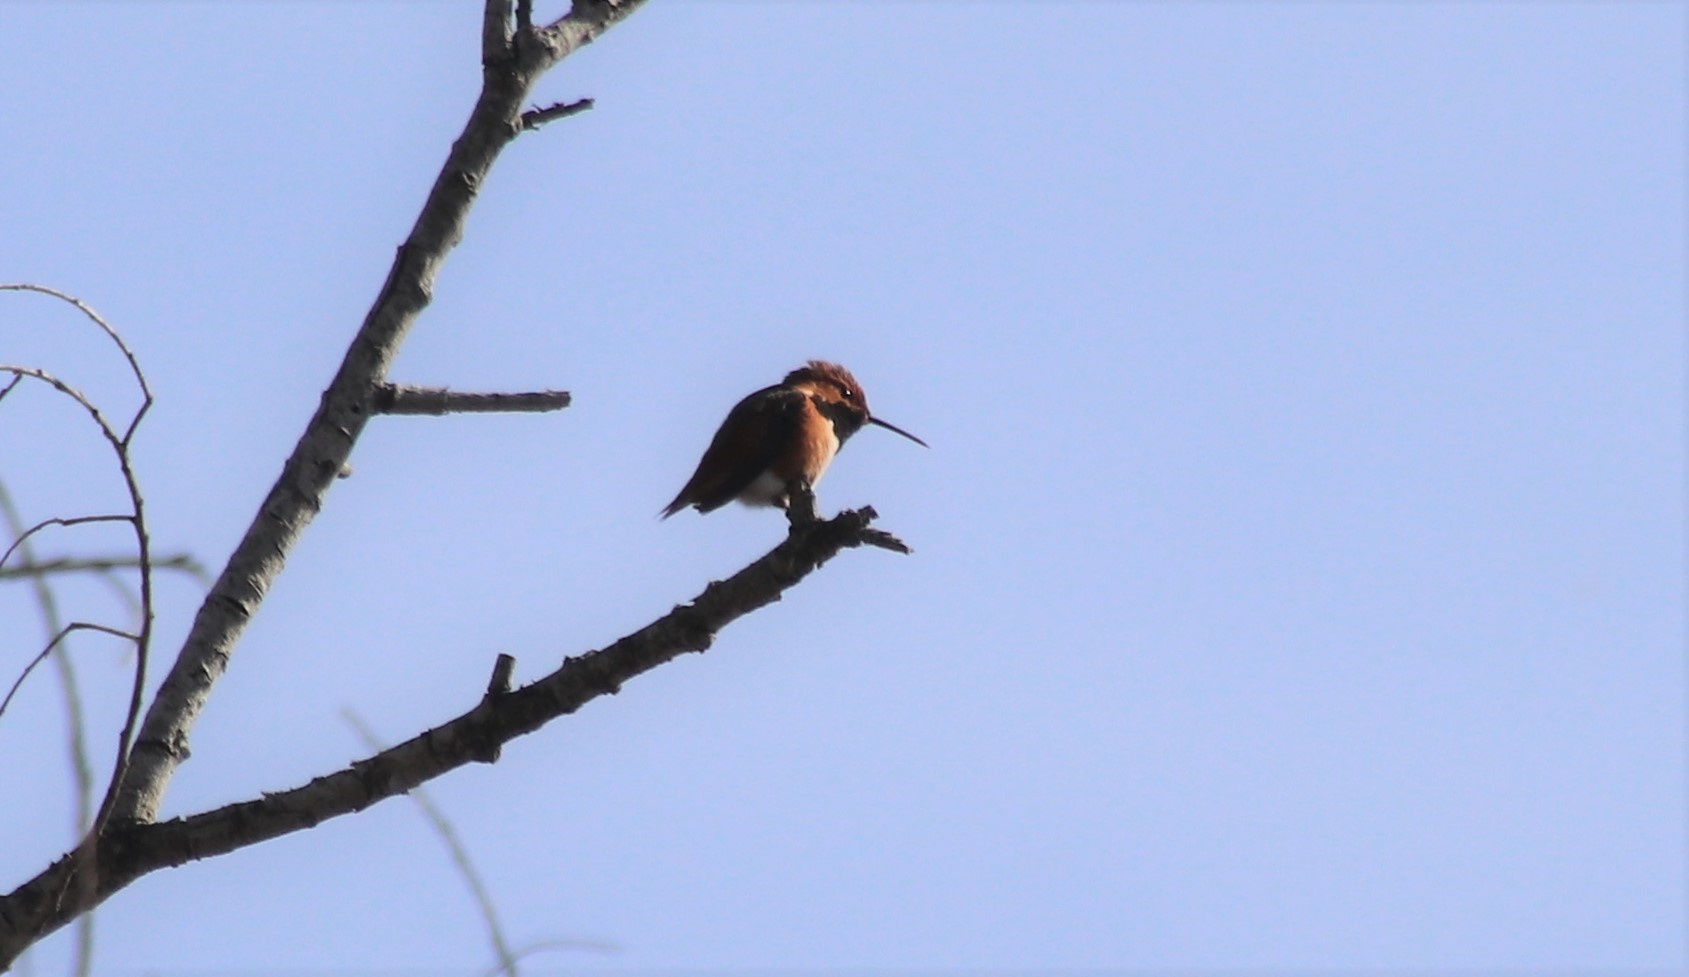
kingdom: Animalia
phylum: Chordata
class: Aves
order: Apodiformes
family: Trochilidae
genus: Selasphorus
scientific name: Selasphorus sasin
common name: Allen's hummingbird
